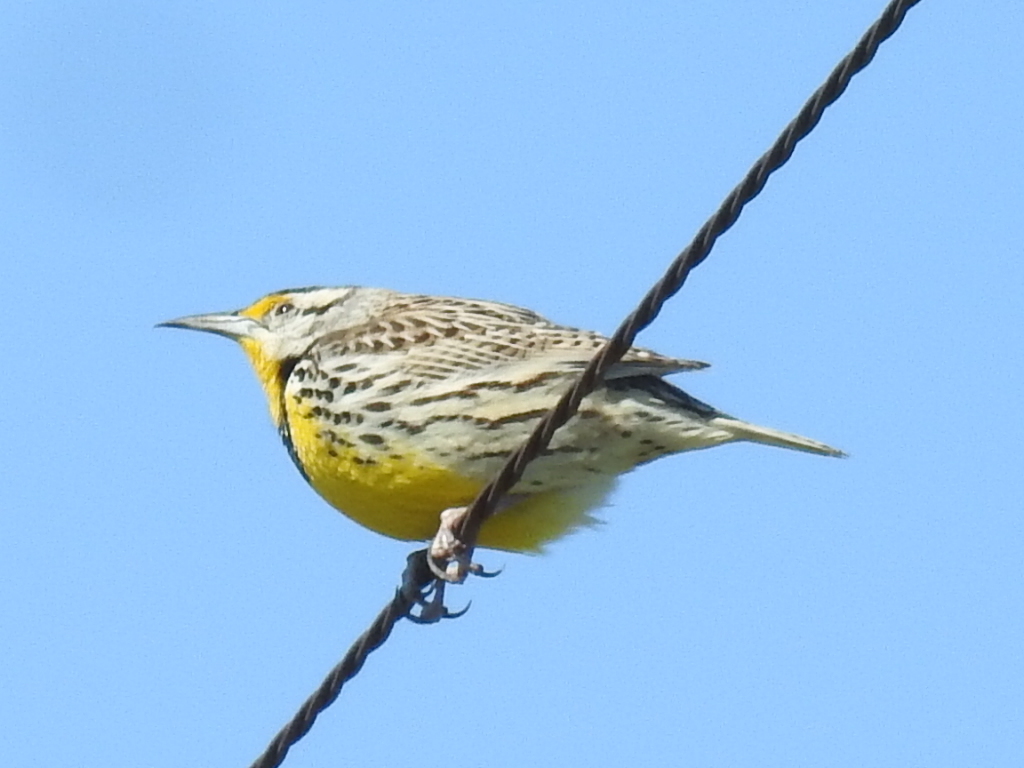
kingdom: Animalia
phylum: Chordata
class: Aves
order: Passeriformes
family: Icteridae
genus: Sturnella
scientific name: Sturnella magna
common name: Eastern meadowlark
